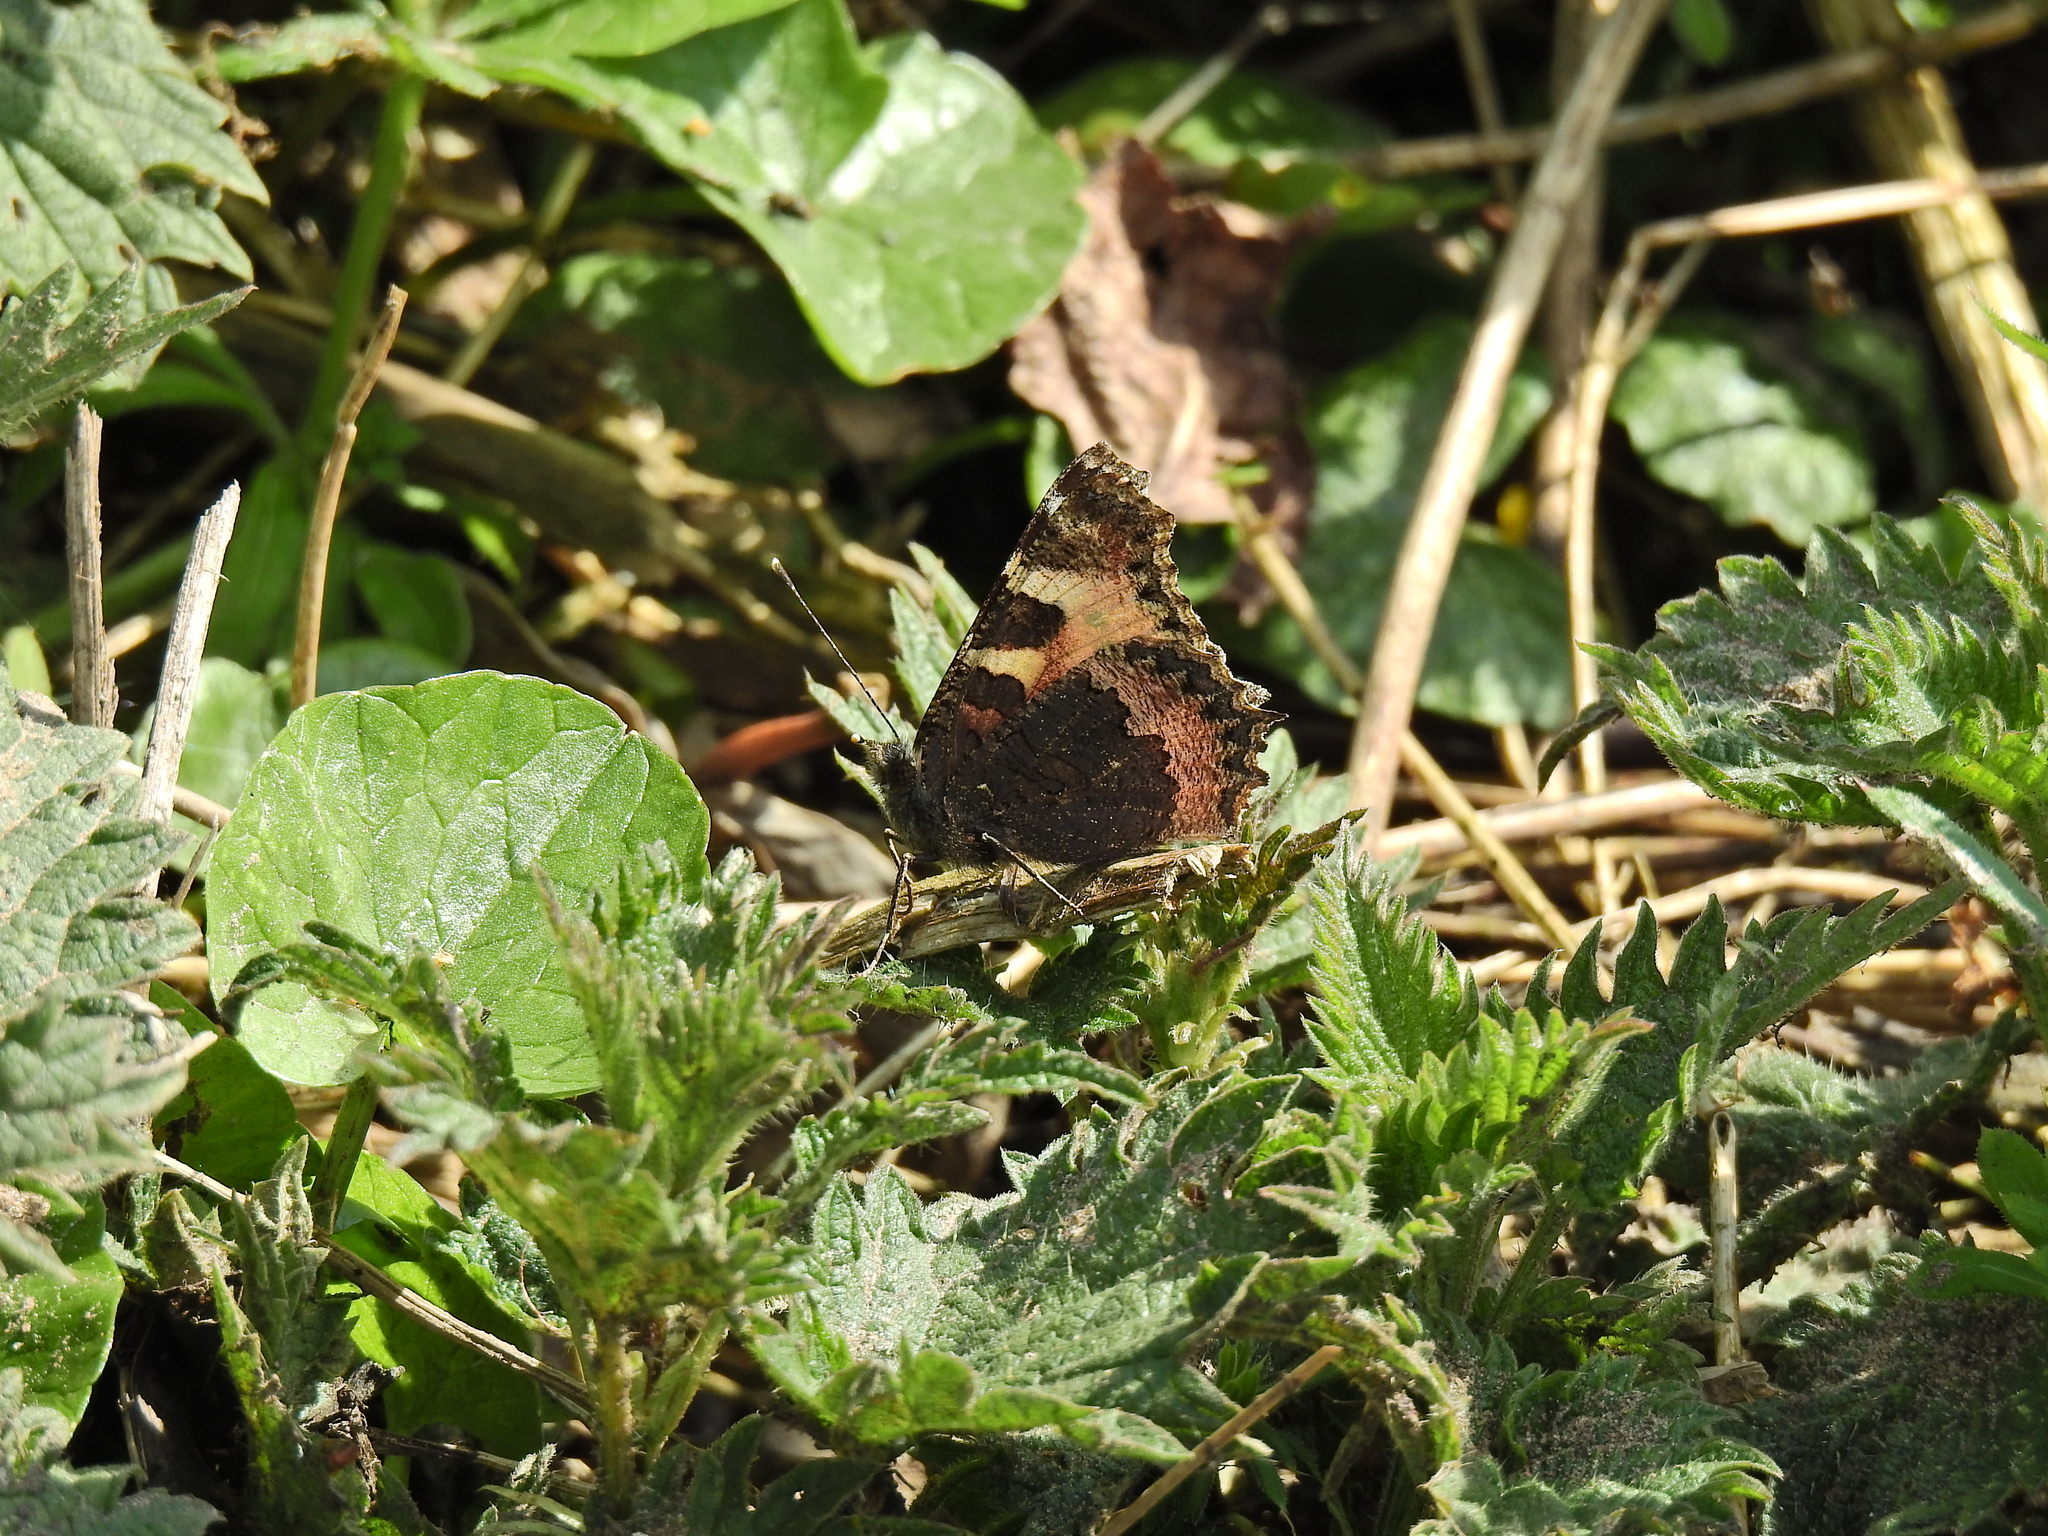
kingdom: Animalia
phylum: Arthropoda
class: Insecta
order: Lepidoptera
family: Nymphalidae
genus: Aglais
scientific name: Aglais urticae
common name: Small tortoiseshell
